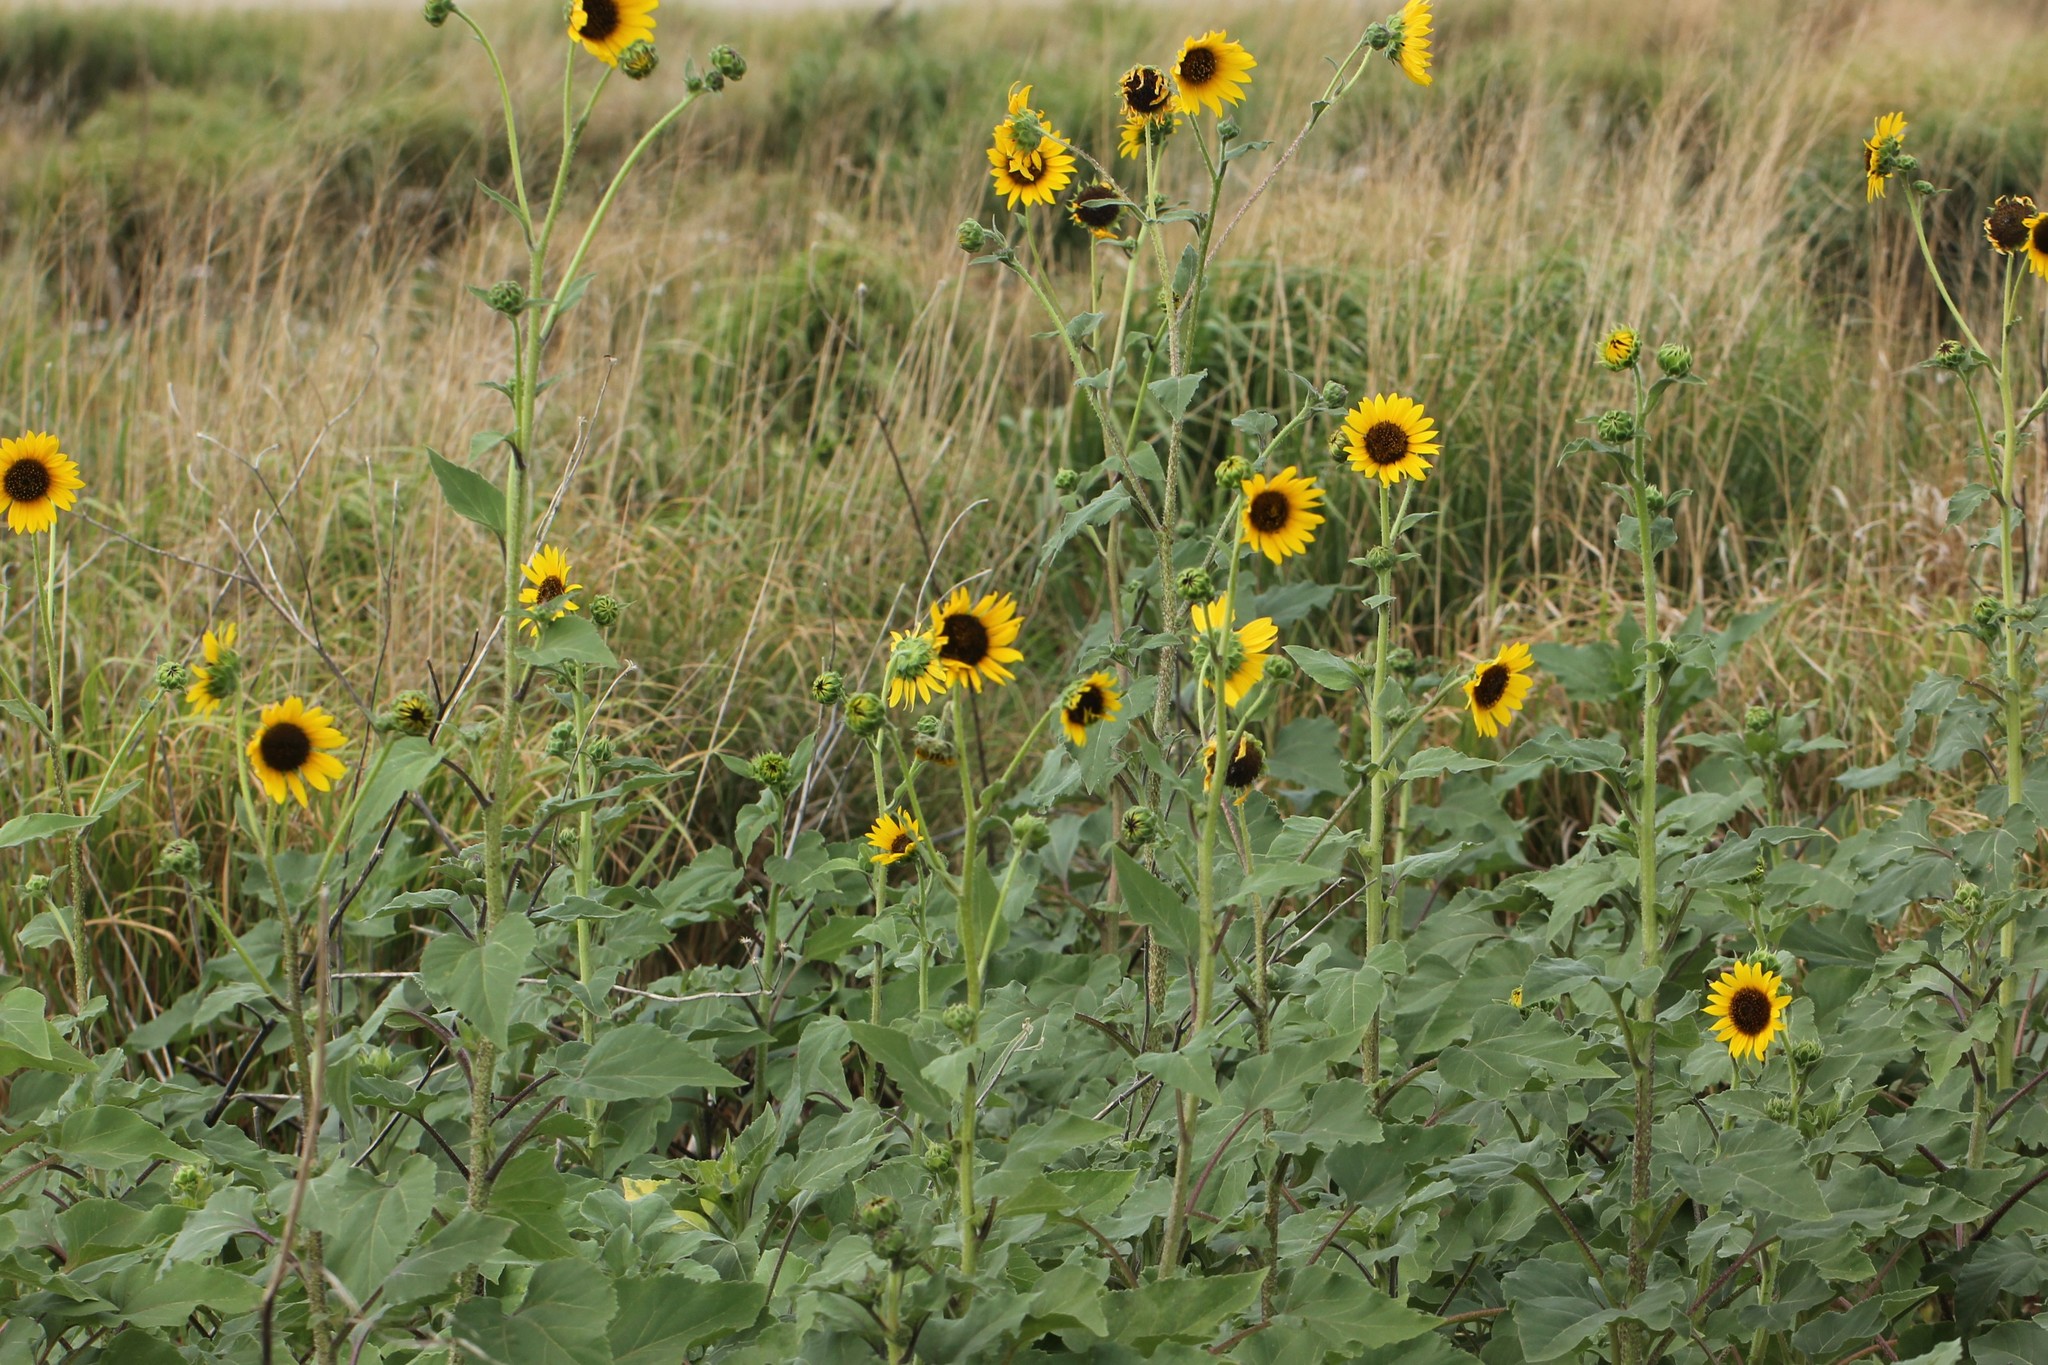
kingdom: Plantae
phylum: Tracheophyta
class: Magnoliopsida
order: Asterales
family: Asteraceae
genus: Helianthus
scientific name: Helianthus annuus
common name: Sunflower
